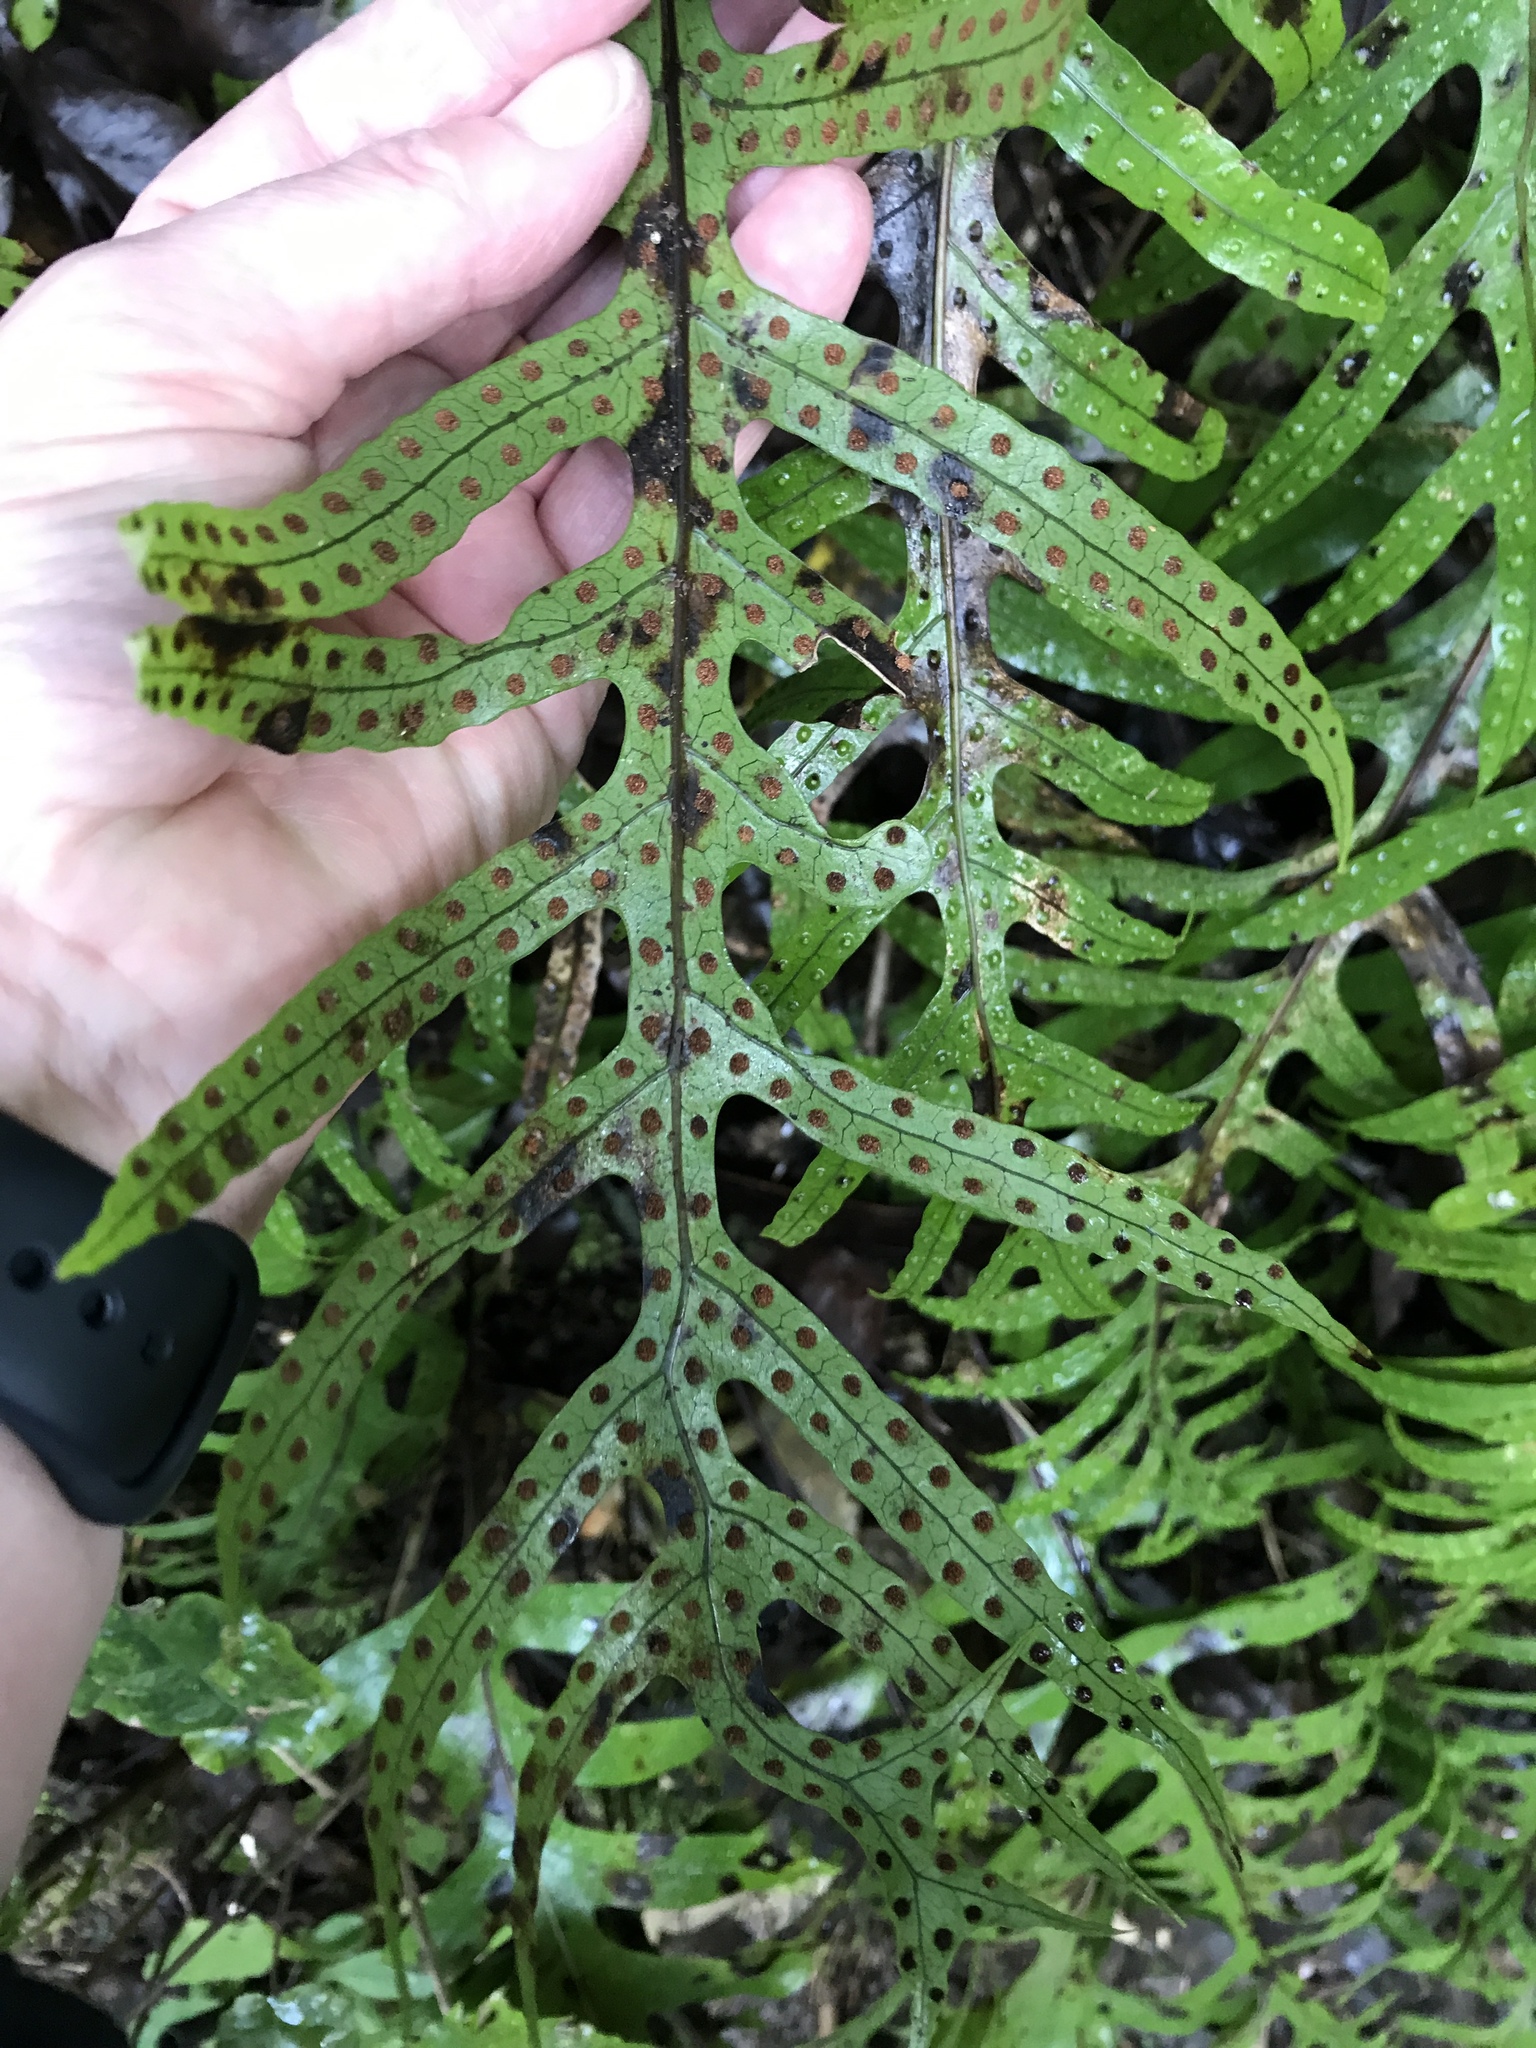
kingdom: Plantae
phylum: Tracheophyta
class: Polypodiopsida
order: Polypodiales
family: Polypodiaceae
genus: Lecanopteris
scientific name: Lecanopteris pustulata
